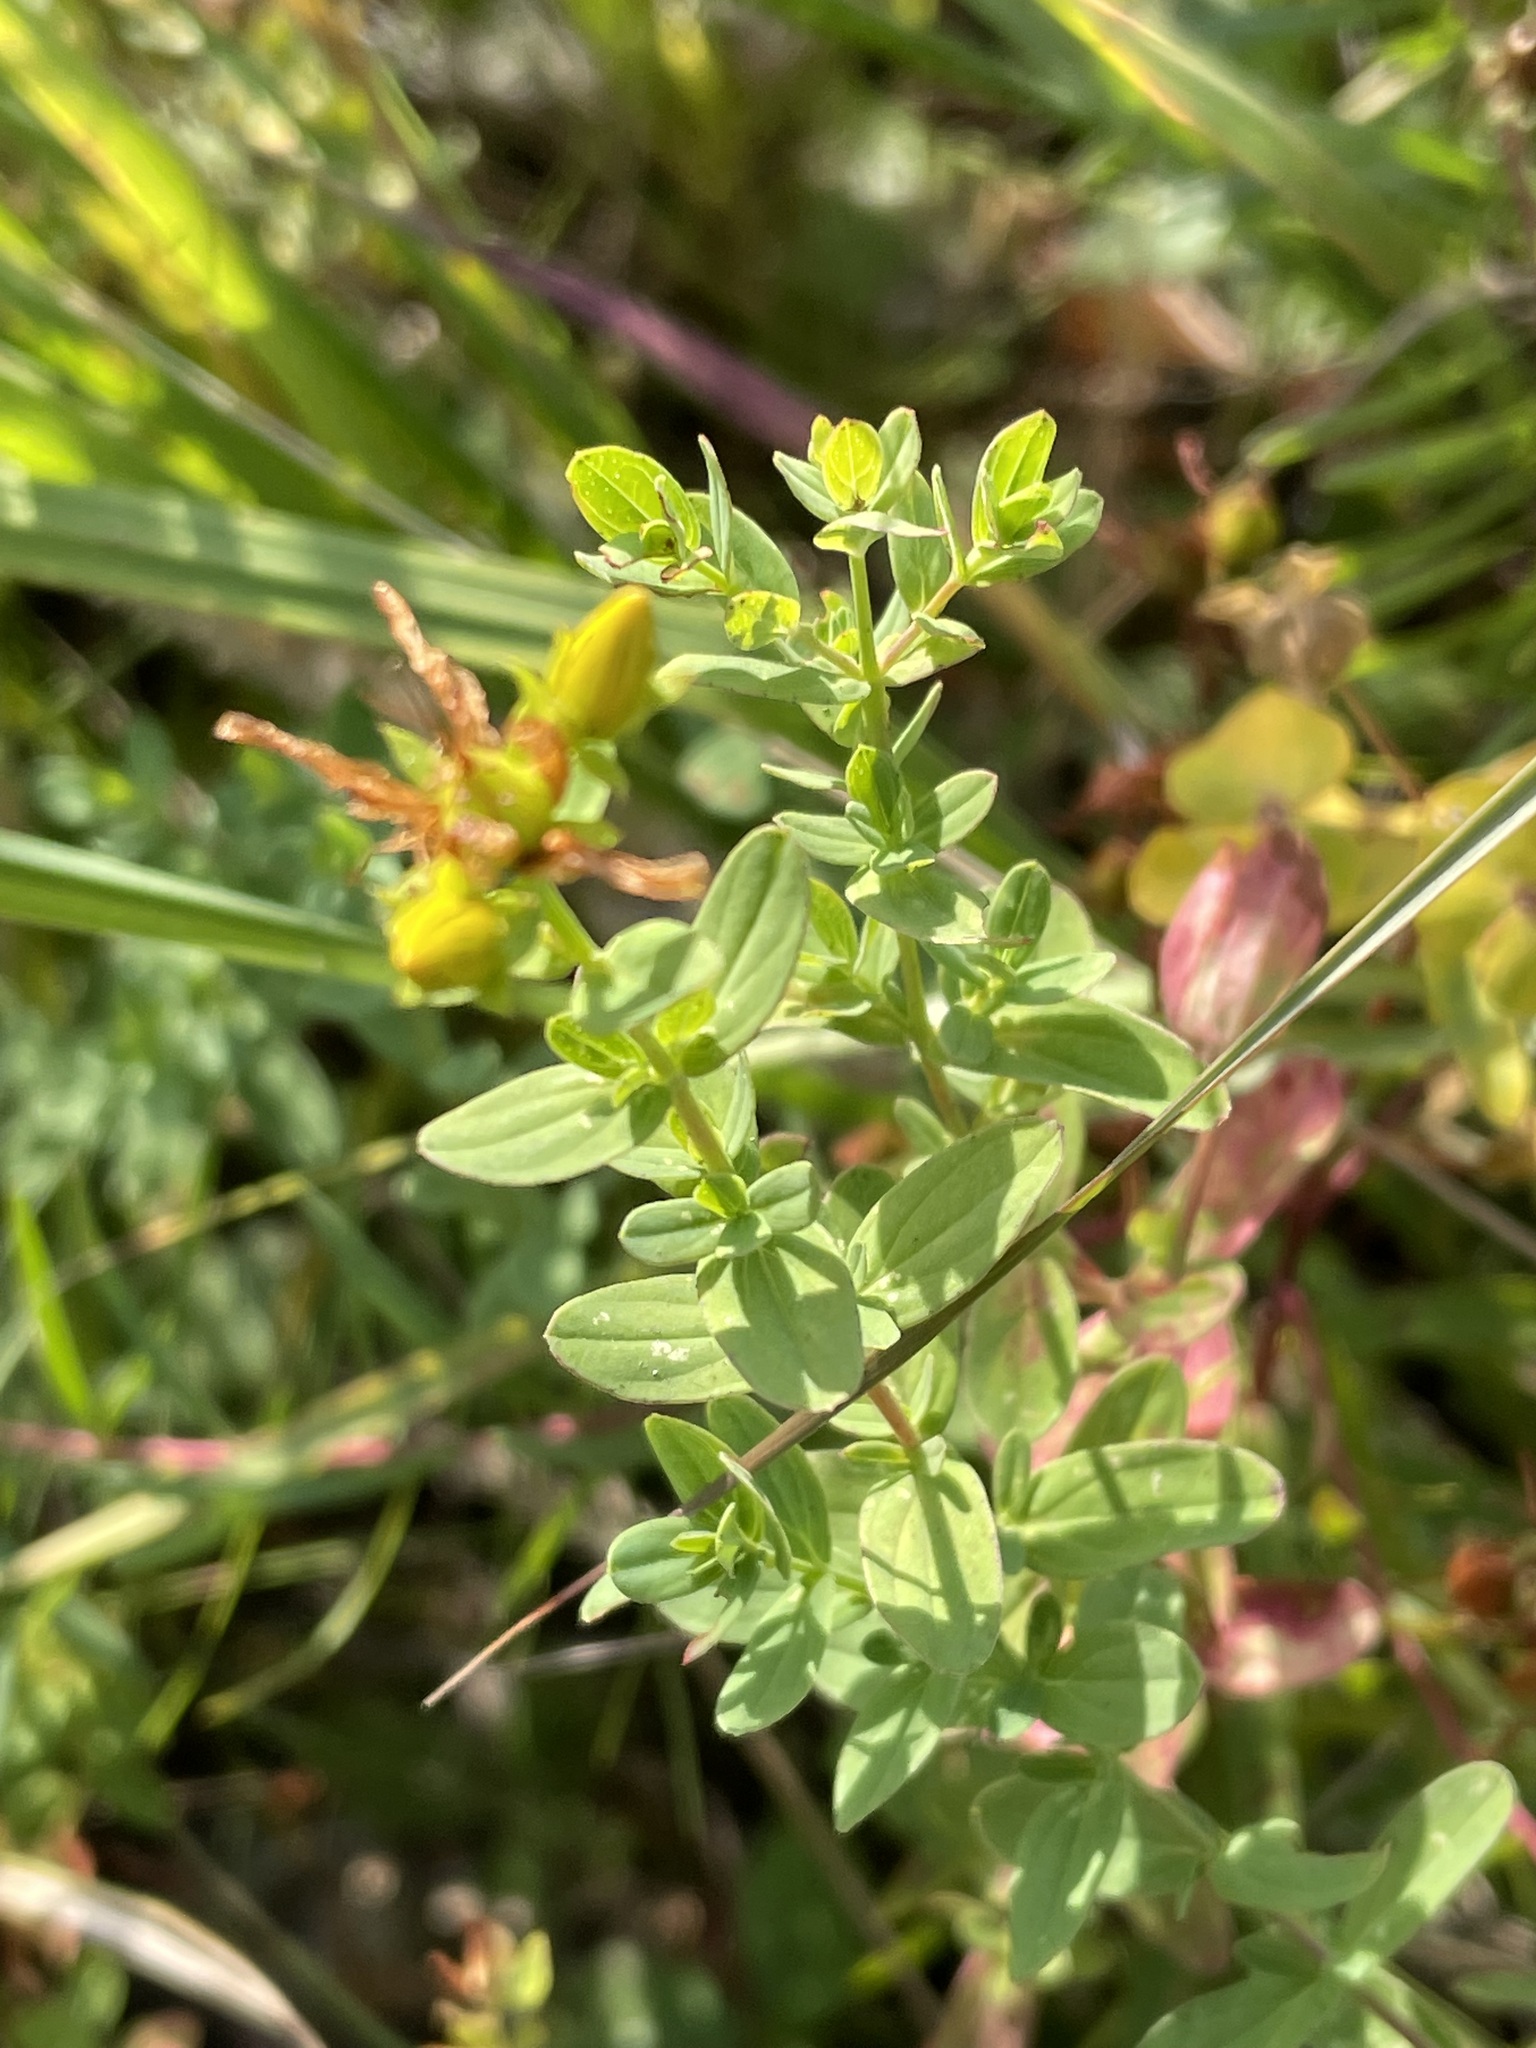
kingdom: Plantae
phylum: Tracheophyta
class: Magnoliopsida
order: Malpighiales
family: Hypericaceae
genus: Hypericum
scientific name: Hypericum perforatum
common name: Common st. johnswort
